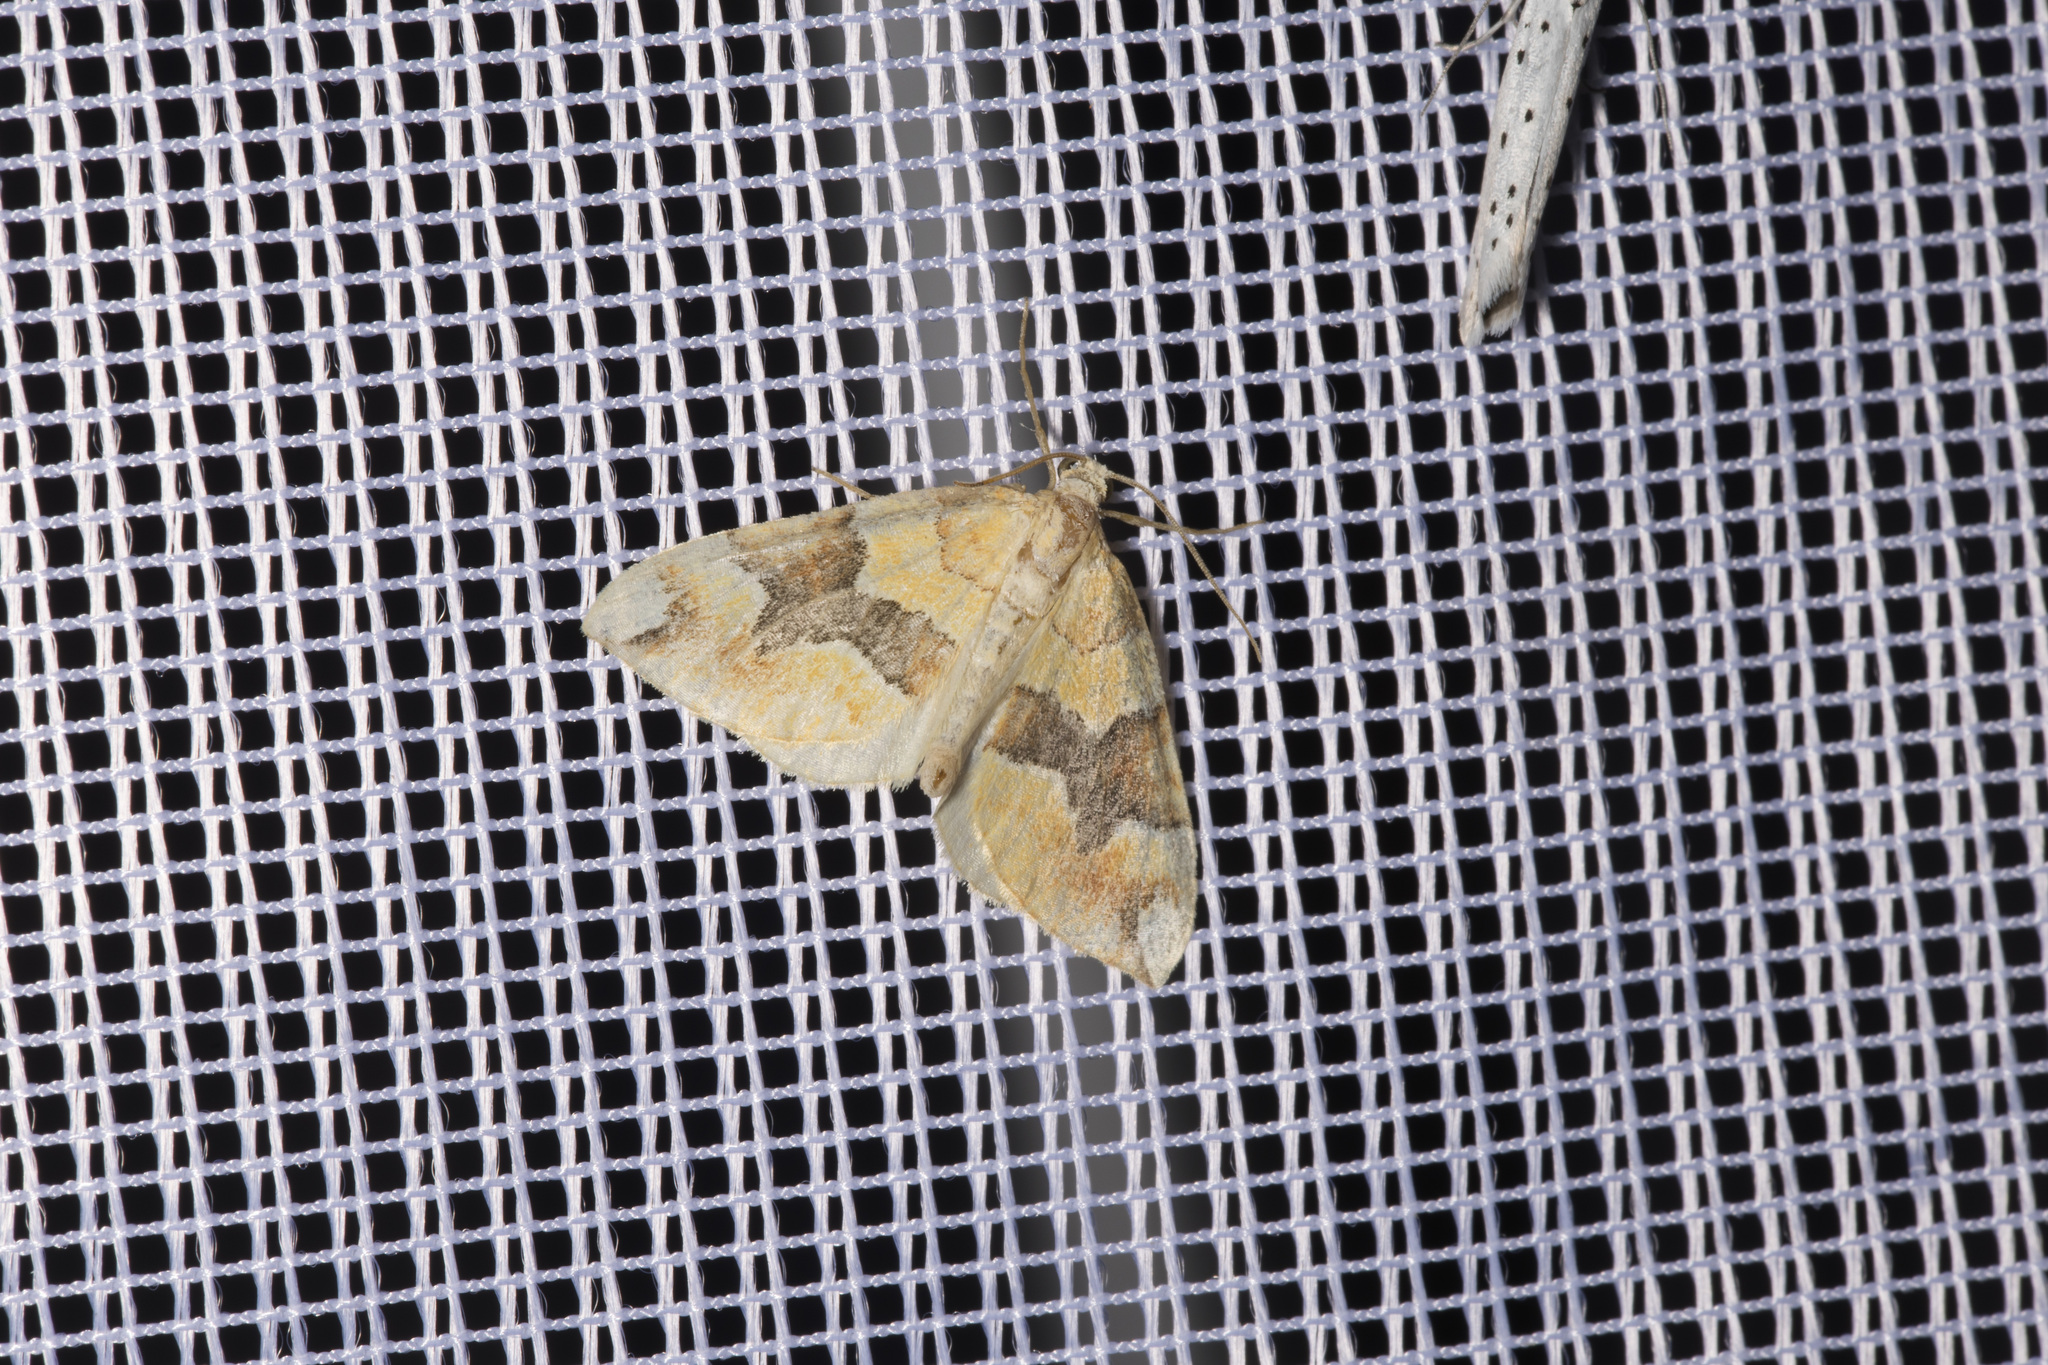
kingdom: Animalia
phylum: Arthropoda
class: Insecta
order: Lepidoptera
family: Geometridae
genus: Cidaria
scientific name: Cidaria fulvata
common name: Barred yellow
